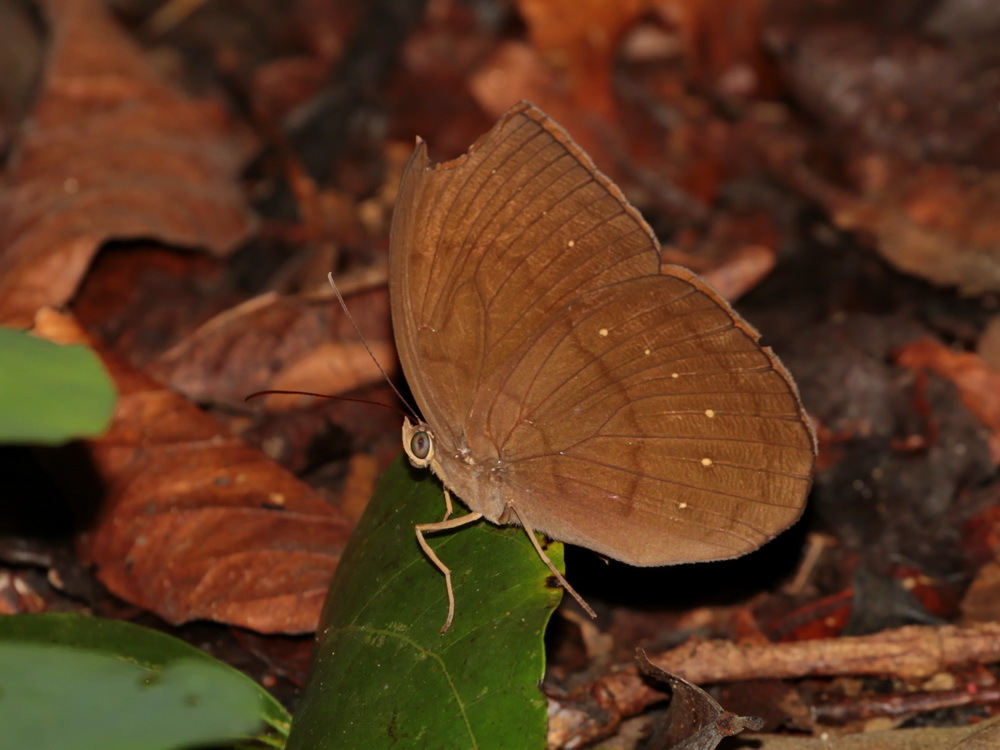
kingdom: Animalia
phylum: Arthropoda
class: Insecta
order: Lepidoptera
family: Nymphalidae
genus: Faunis
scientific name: Faunis canens
